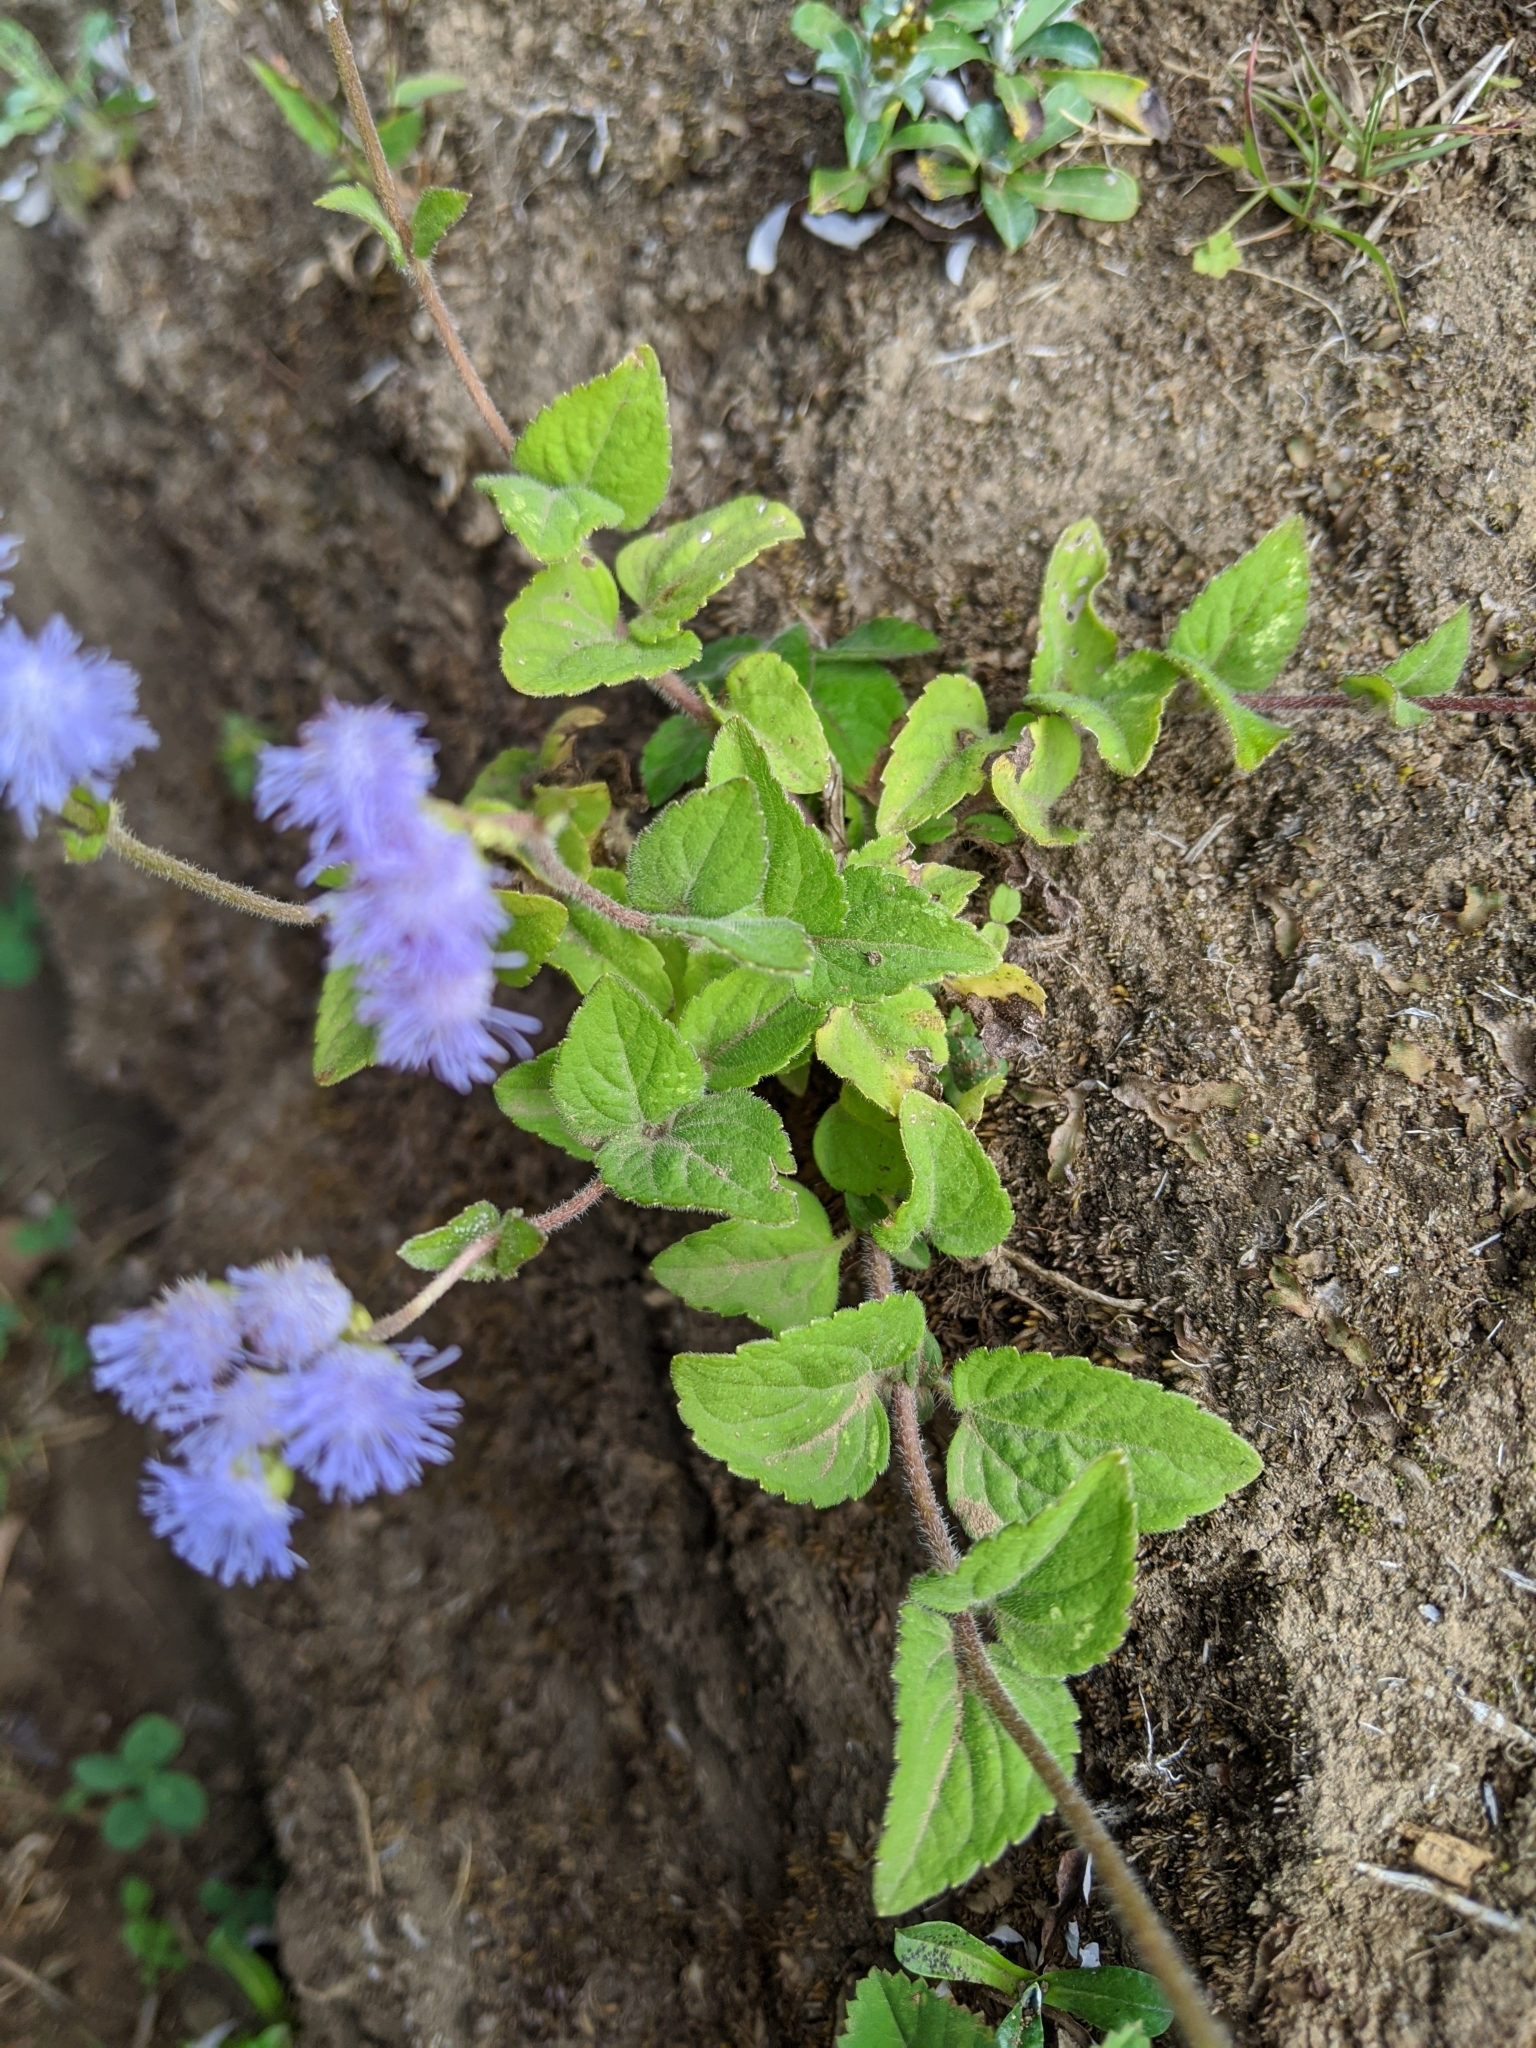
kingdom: Plantae
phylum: Tracheophyta
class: Magnoliopsida
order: Asterales
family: Asteraceae
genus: Ageratum
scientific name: Ageratum houstonianum
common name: Bluemink
